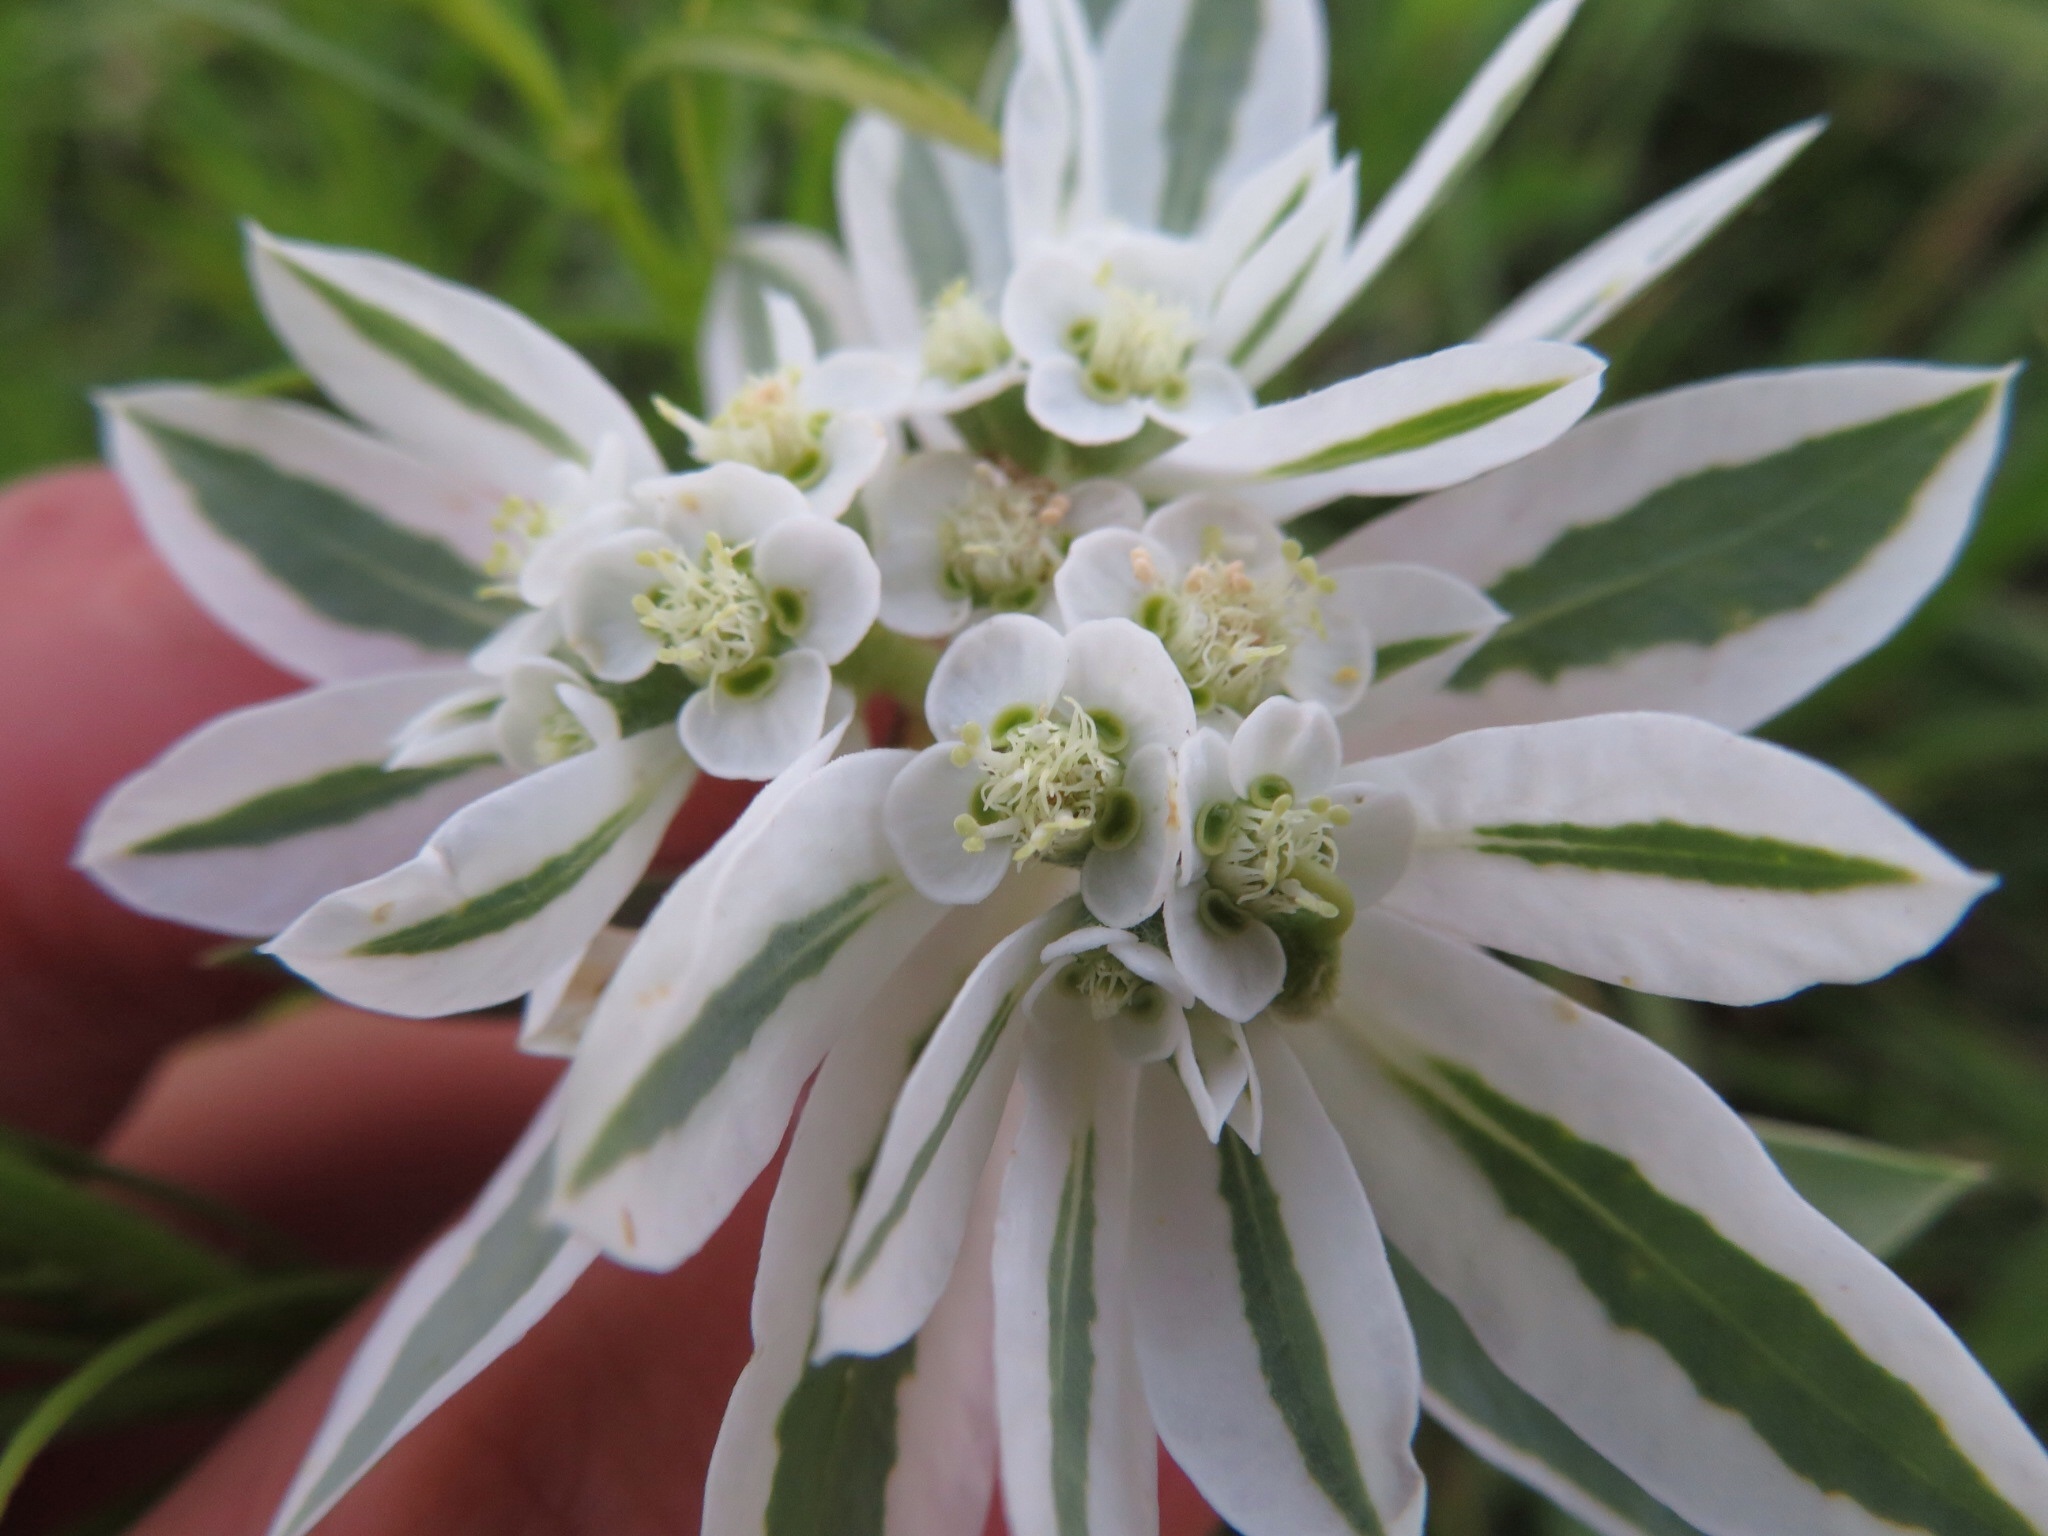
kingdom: Plantae
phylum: Tracheophyta
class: Magnoliopsida
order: Malpighiales
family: Euphorbiaceae
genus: Euphorbia
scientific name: Euphorbia marginata
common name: Ghostweed
